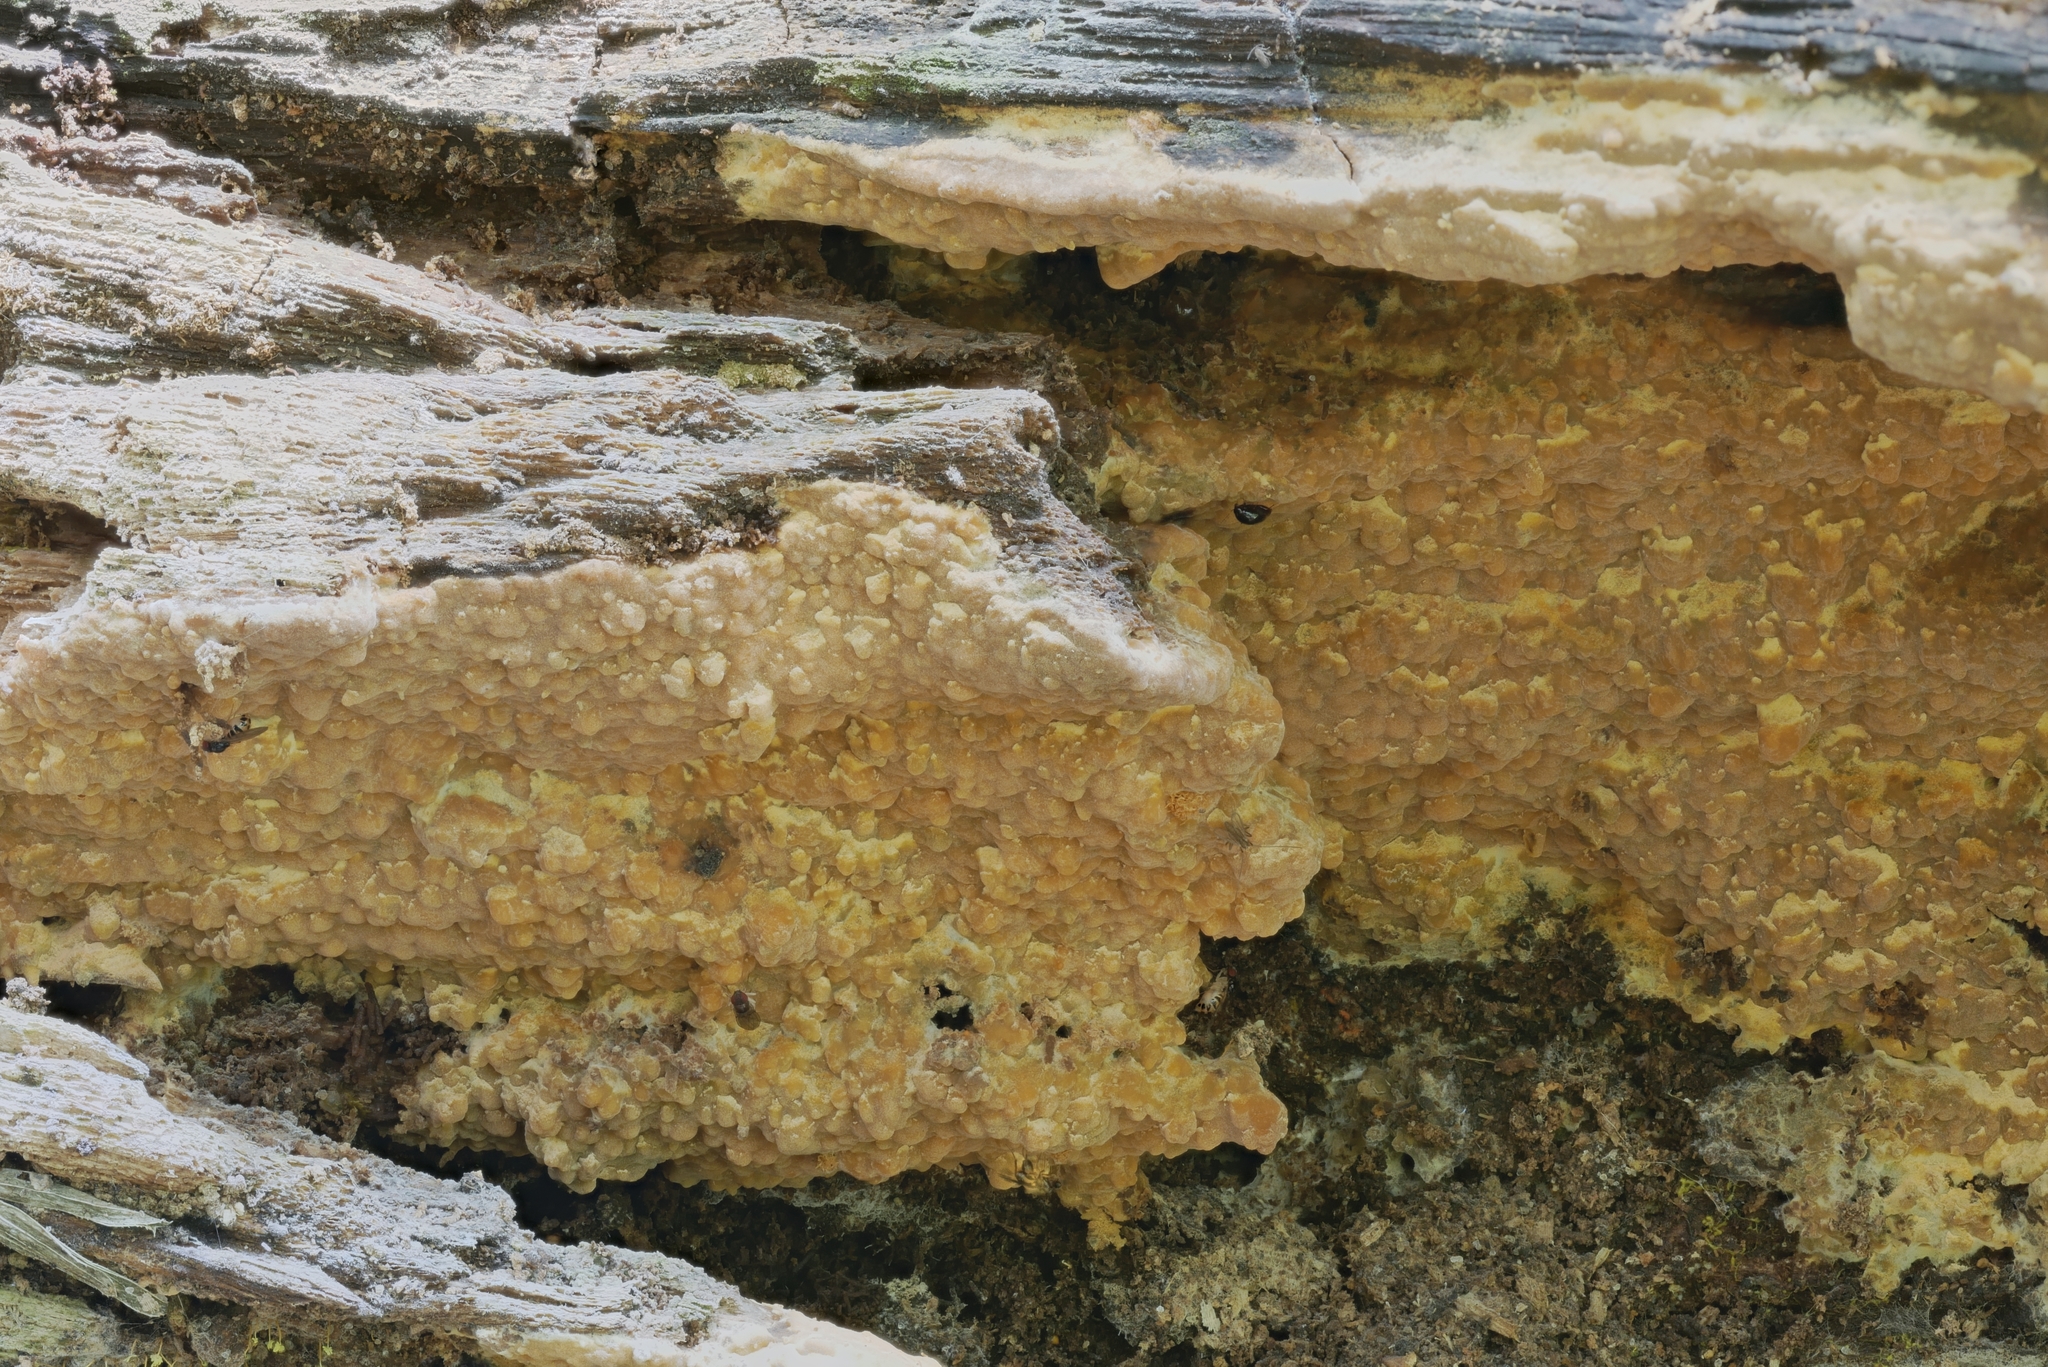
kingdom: Fungi
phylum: Basidiomycota
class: Agaricomycetes
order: Russulales
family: Peniophoraceae
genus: Dichostereum
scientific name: Dichostereum effuscatum
